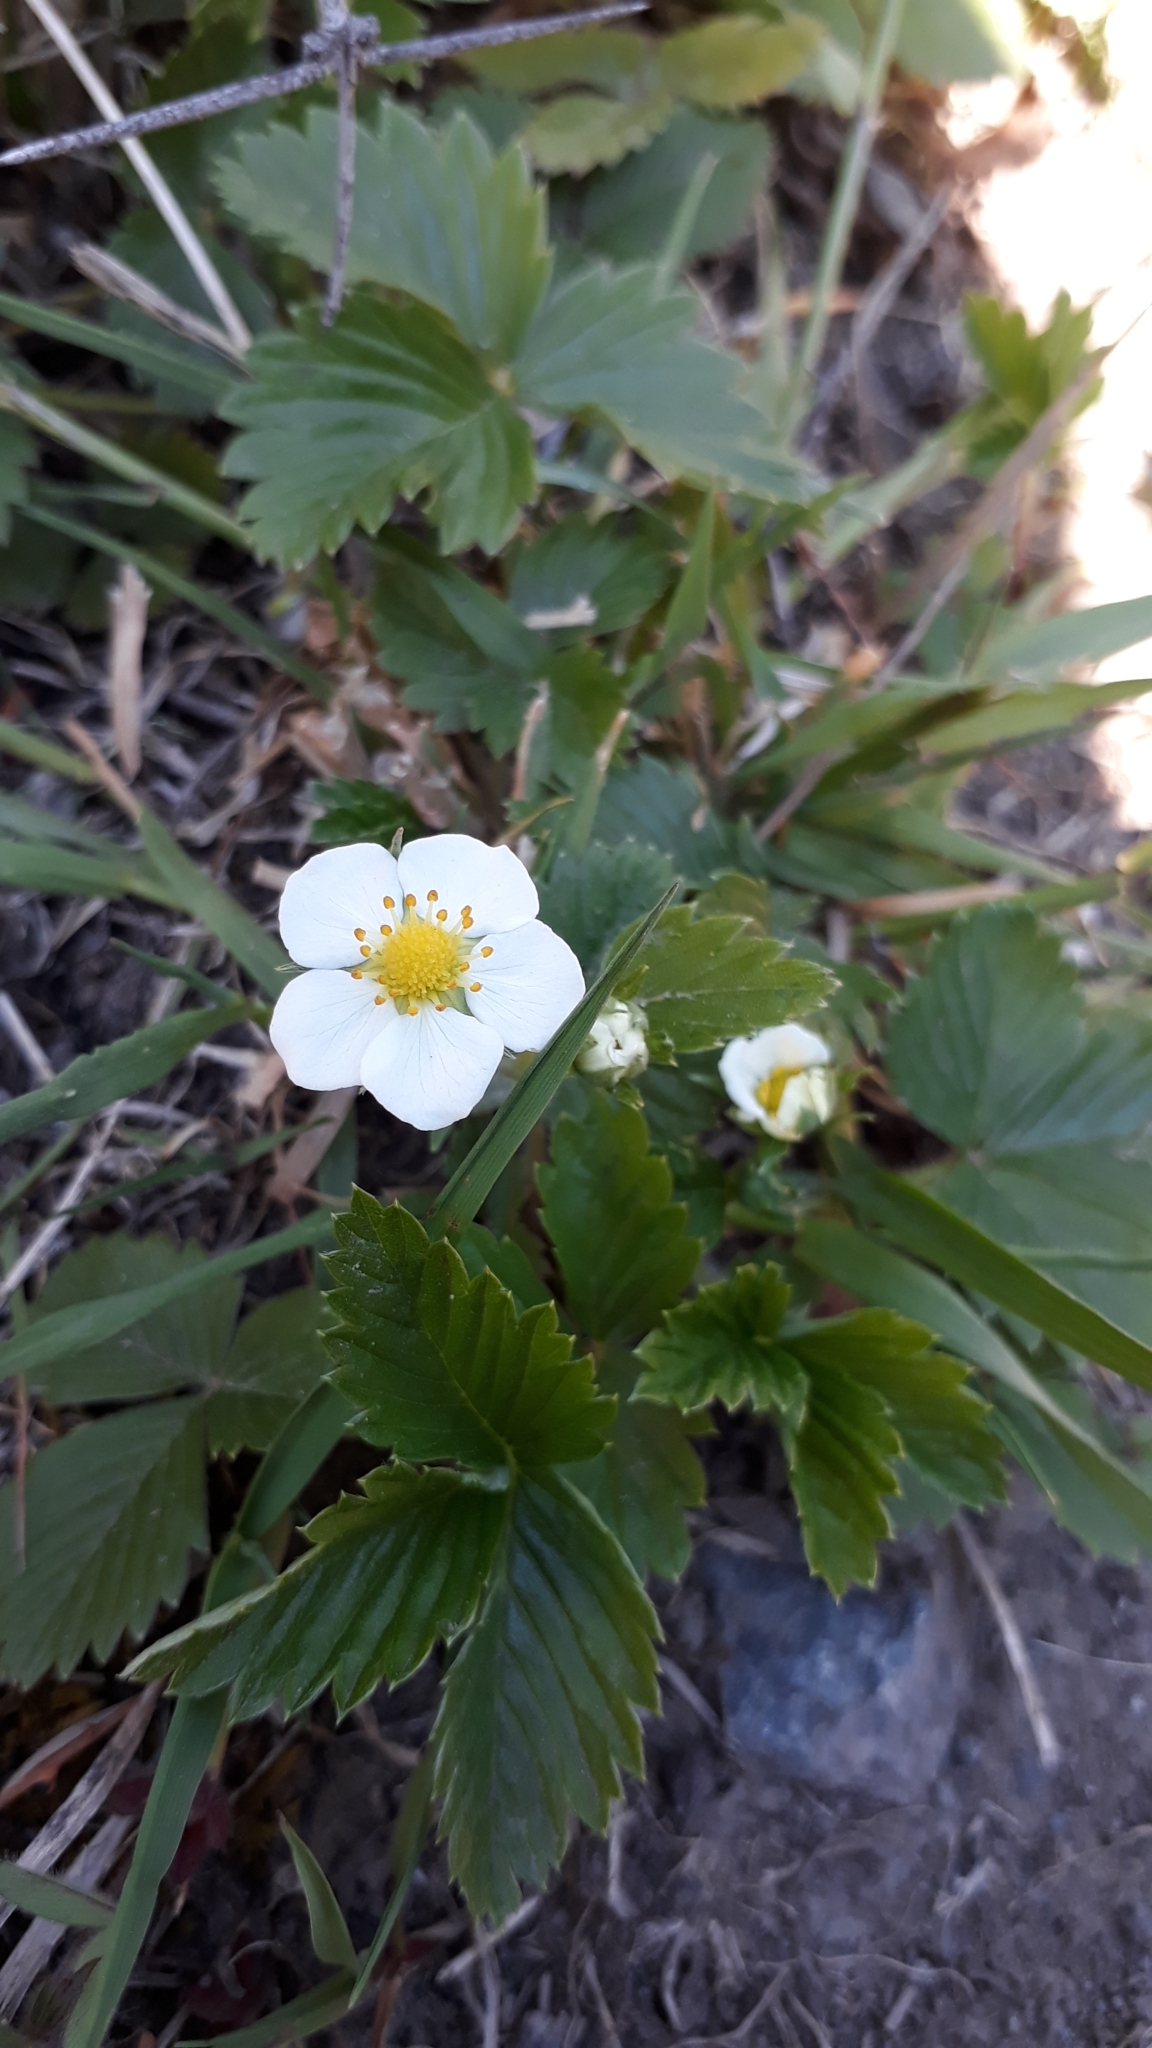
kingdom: Plantae
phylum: Tracheophyta
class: Magnoliopsida
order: Rosales
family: Rosaceae
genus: Fragaria
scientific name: Fragaria ananassa
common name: Garden strawberry
